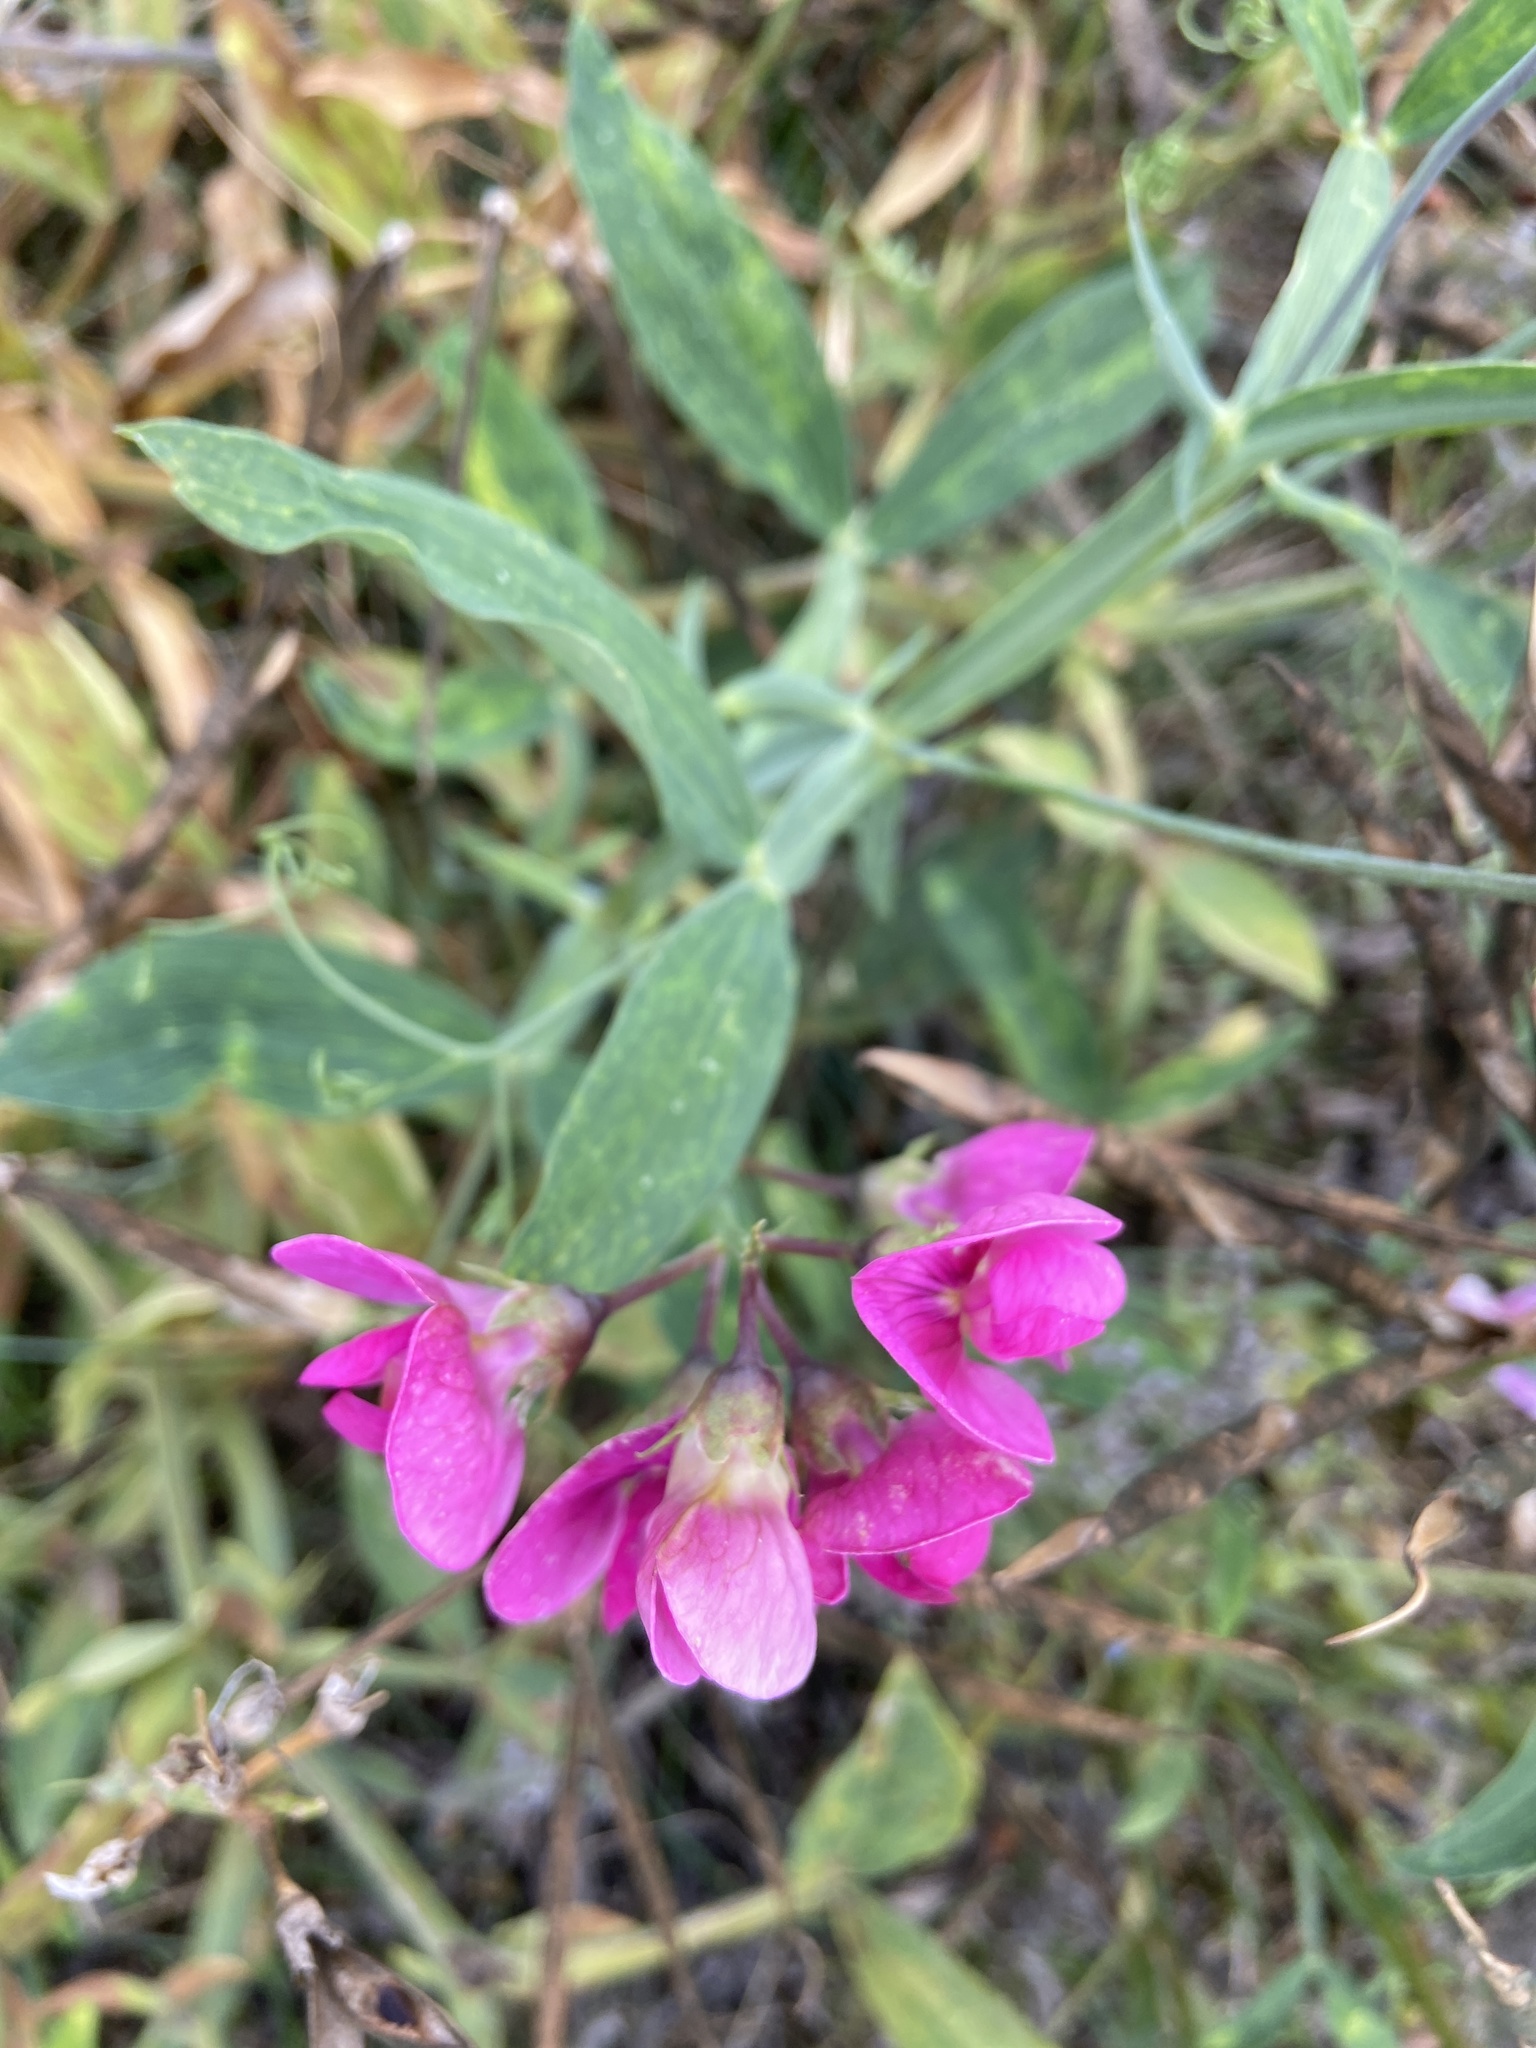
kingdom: Plantae
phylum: Tracheophyta
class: Magnoliopsida
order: Fabales
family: Fabaceae
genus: Lathyrus
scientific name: Lathyrus latifolius
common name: Perennial pea
